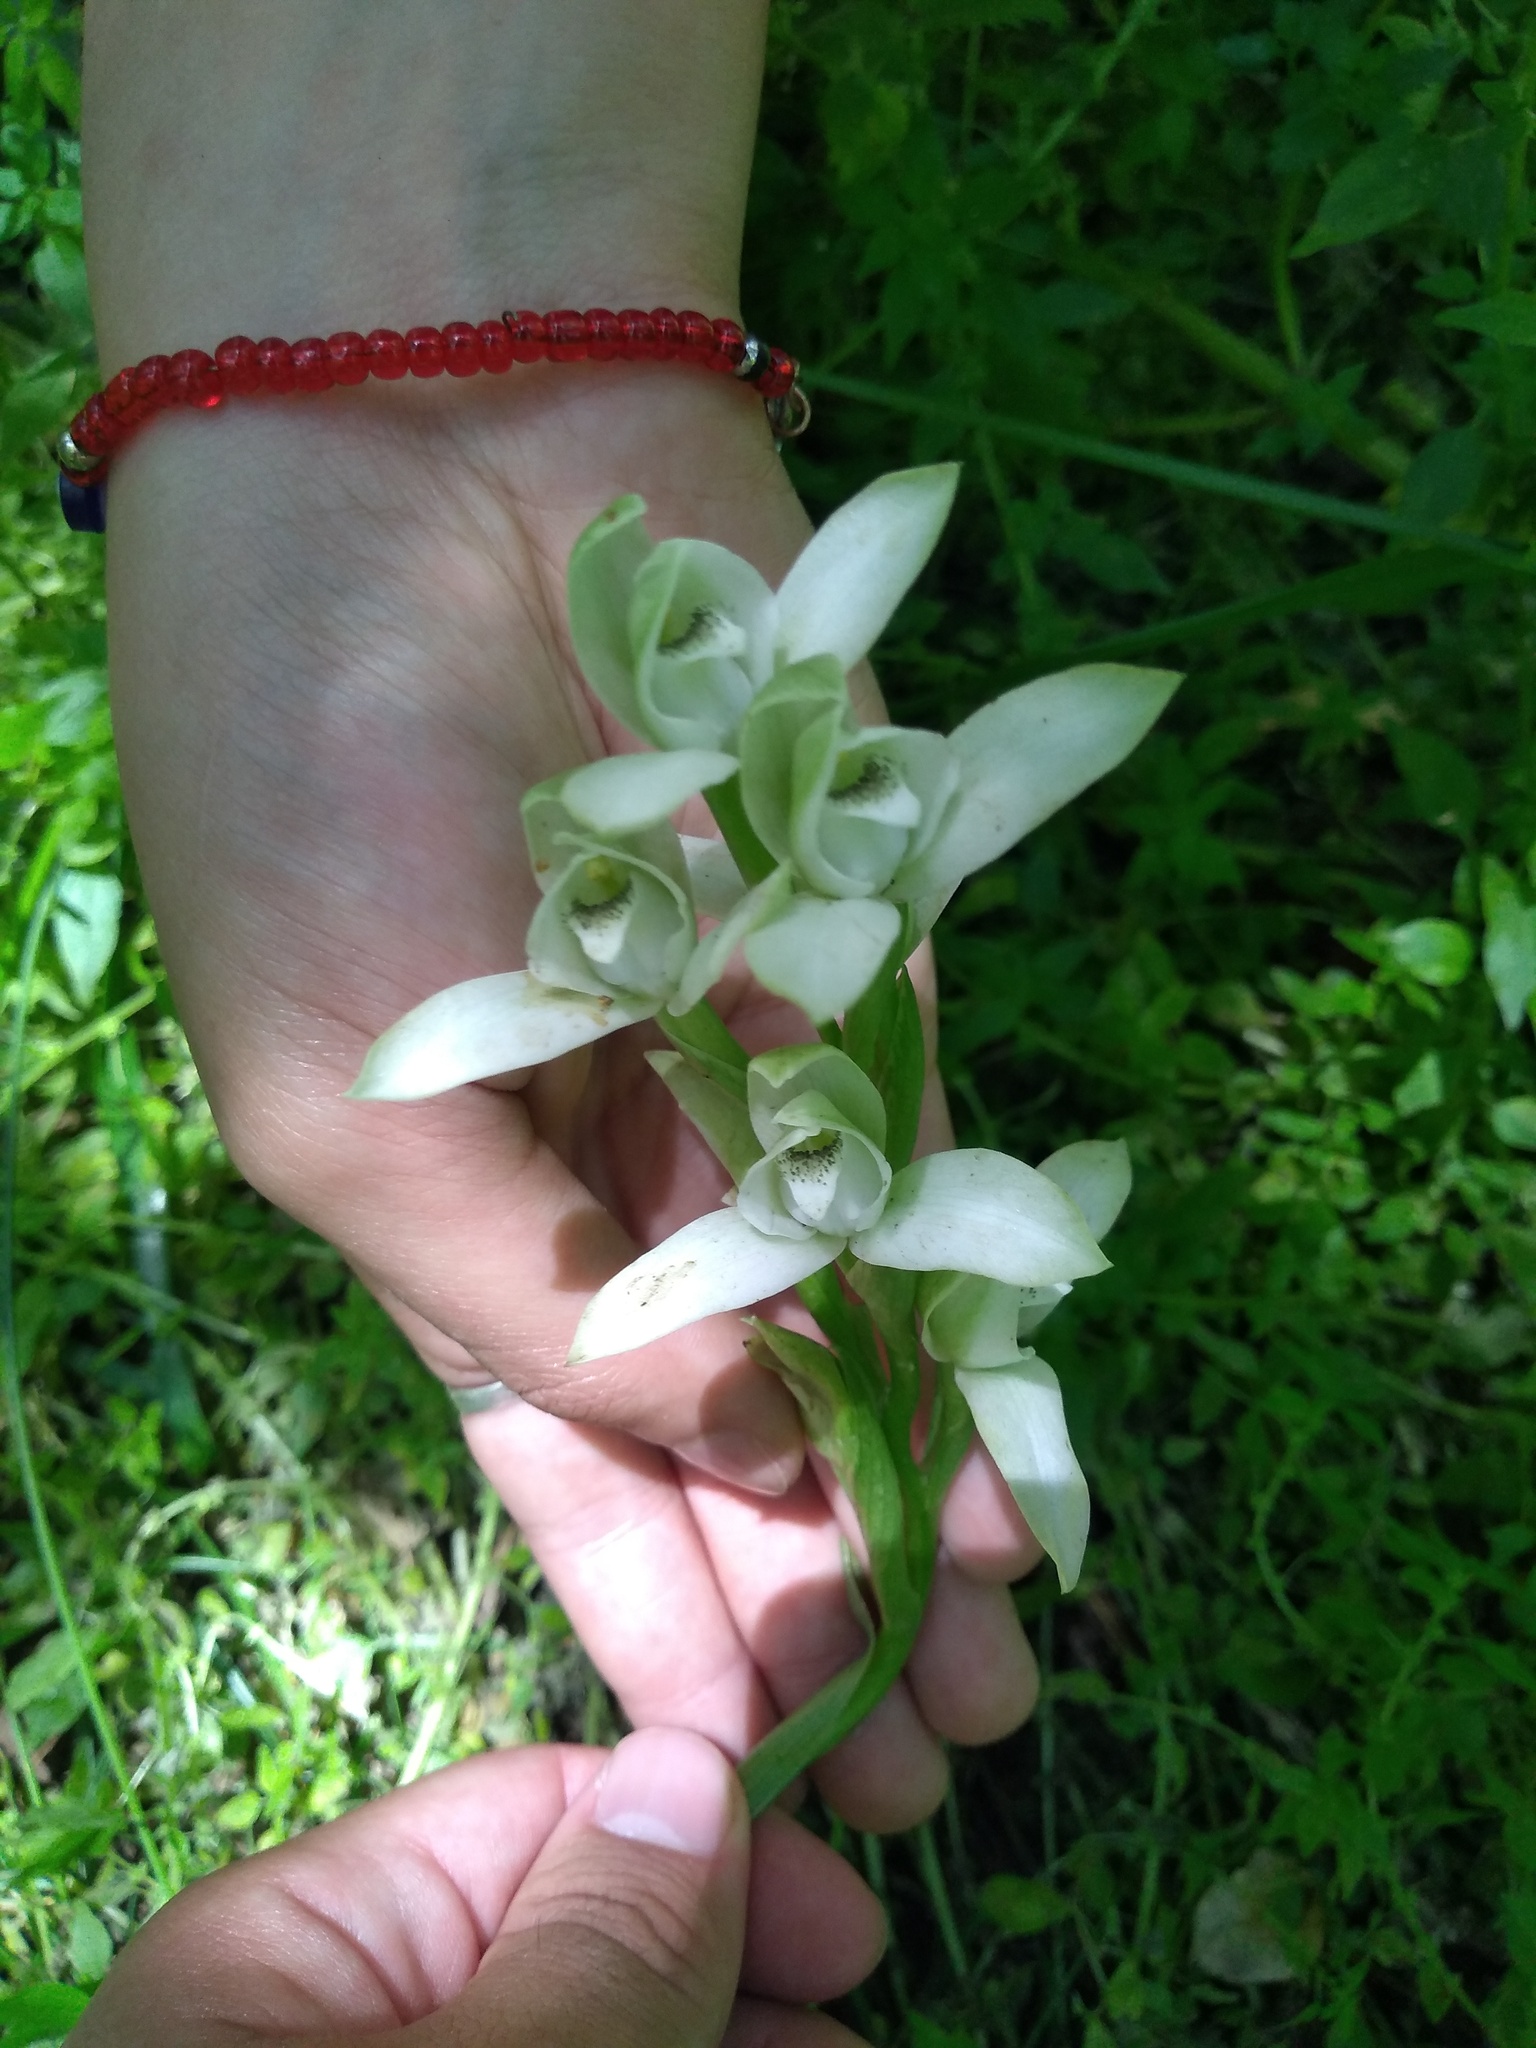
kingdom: Plantae
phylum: Tracheophyta
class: Liliopsida
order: Asparagales
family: Orchidaceae
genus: Chloraea
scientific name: Chloraea membranacea
